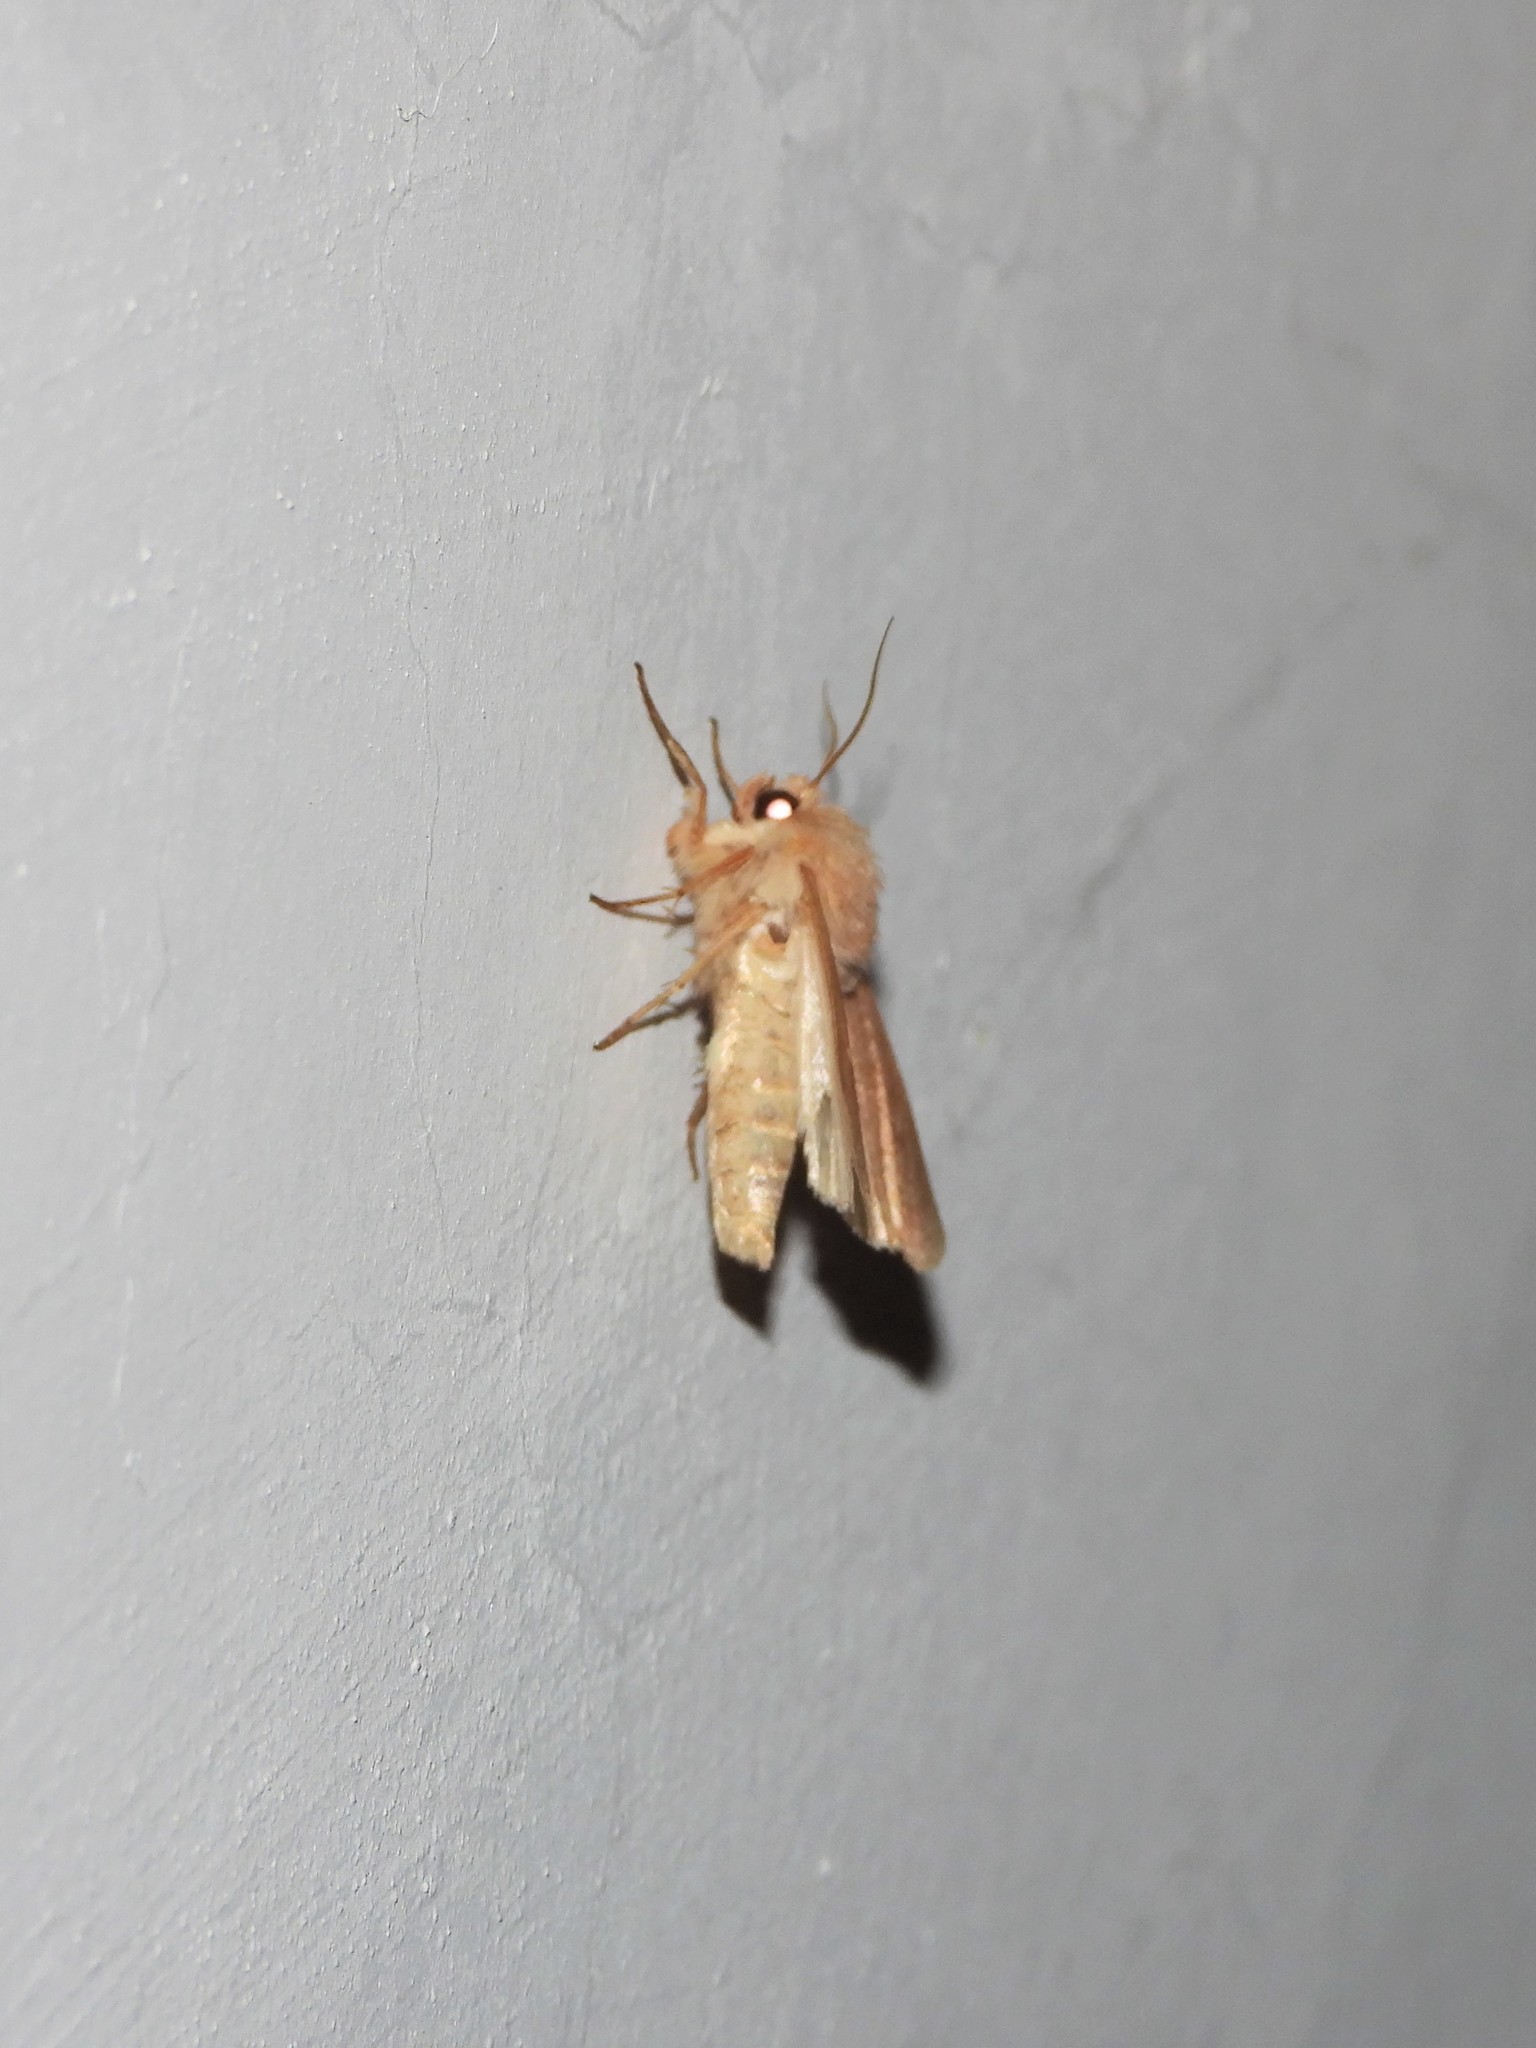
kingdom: Animalia
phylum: Arthropoda
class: Insecta
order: Lepidoptera
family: Noctuidae
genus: Mythimna
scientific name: Mythimna albipuncta
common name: White-point
